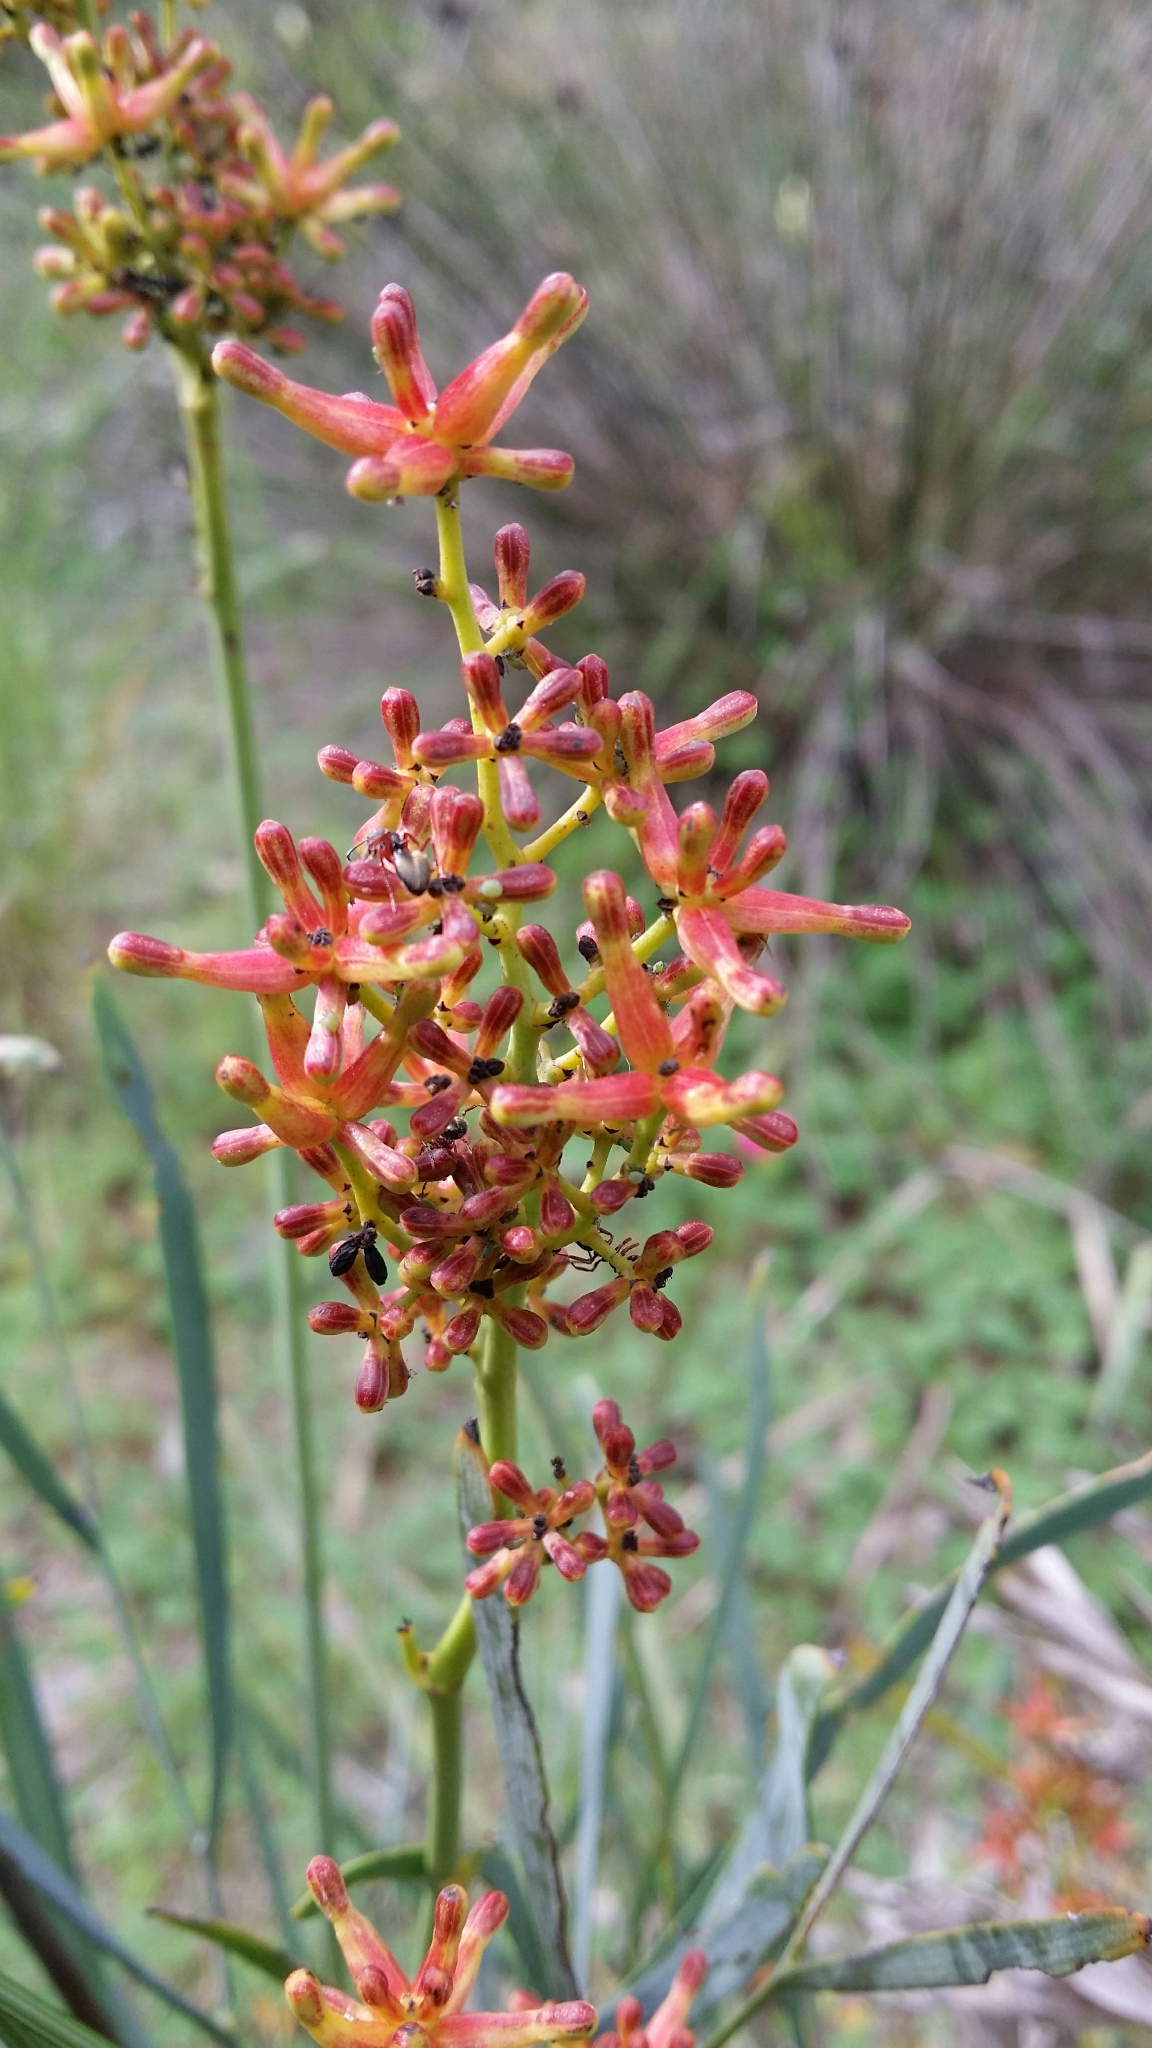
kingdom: Plantae
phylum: Tracheophyta
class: Magnoliopsida
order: Proteales
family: Proteaceae
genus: Stirlingia
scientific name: Stirlingia latifolia
